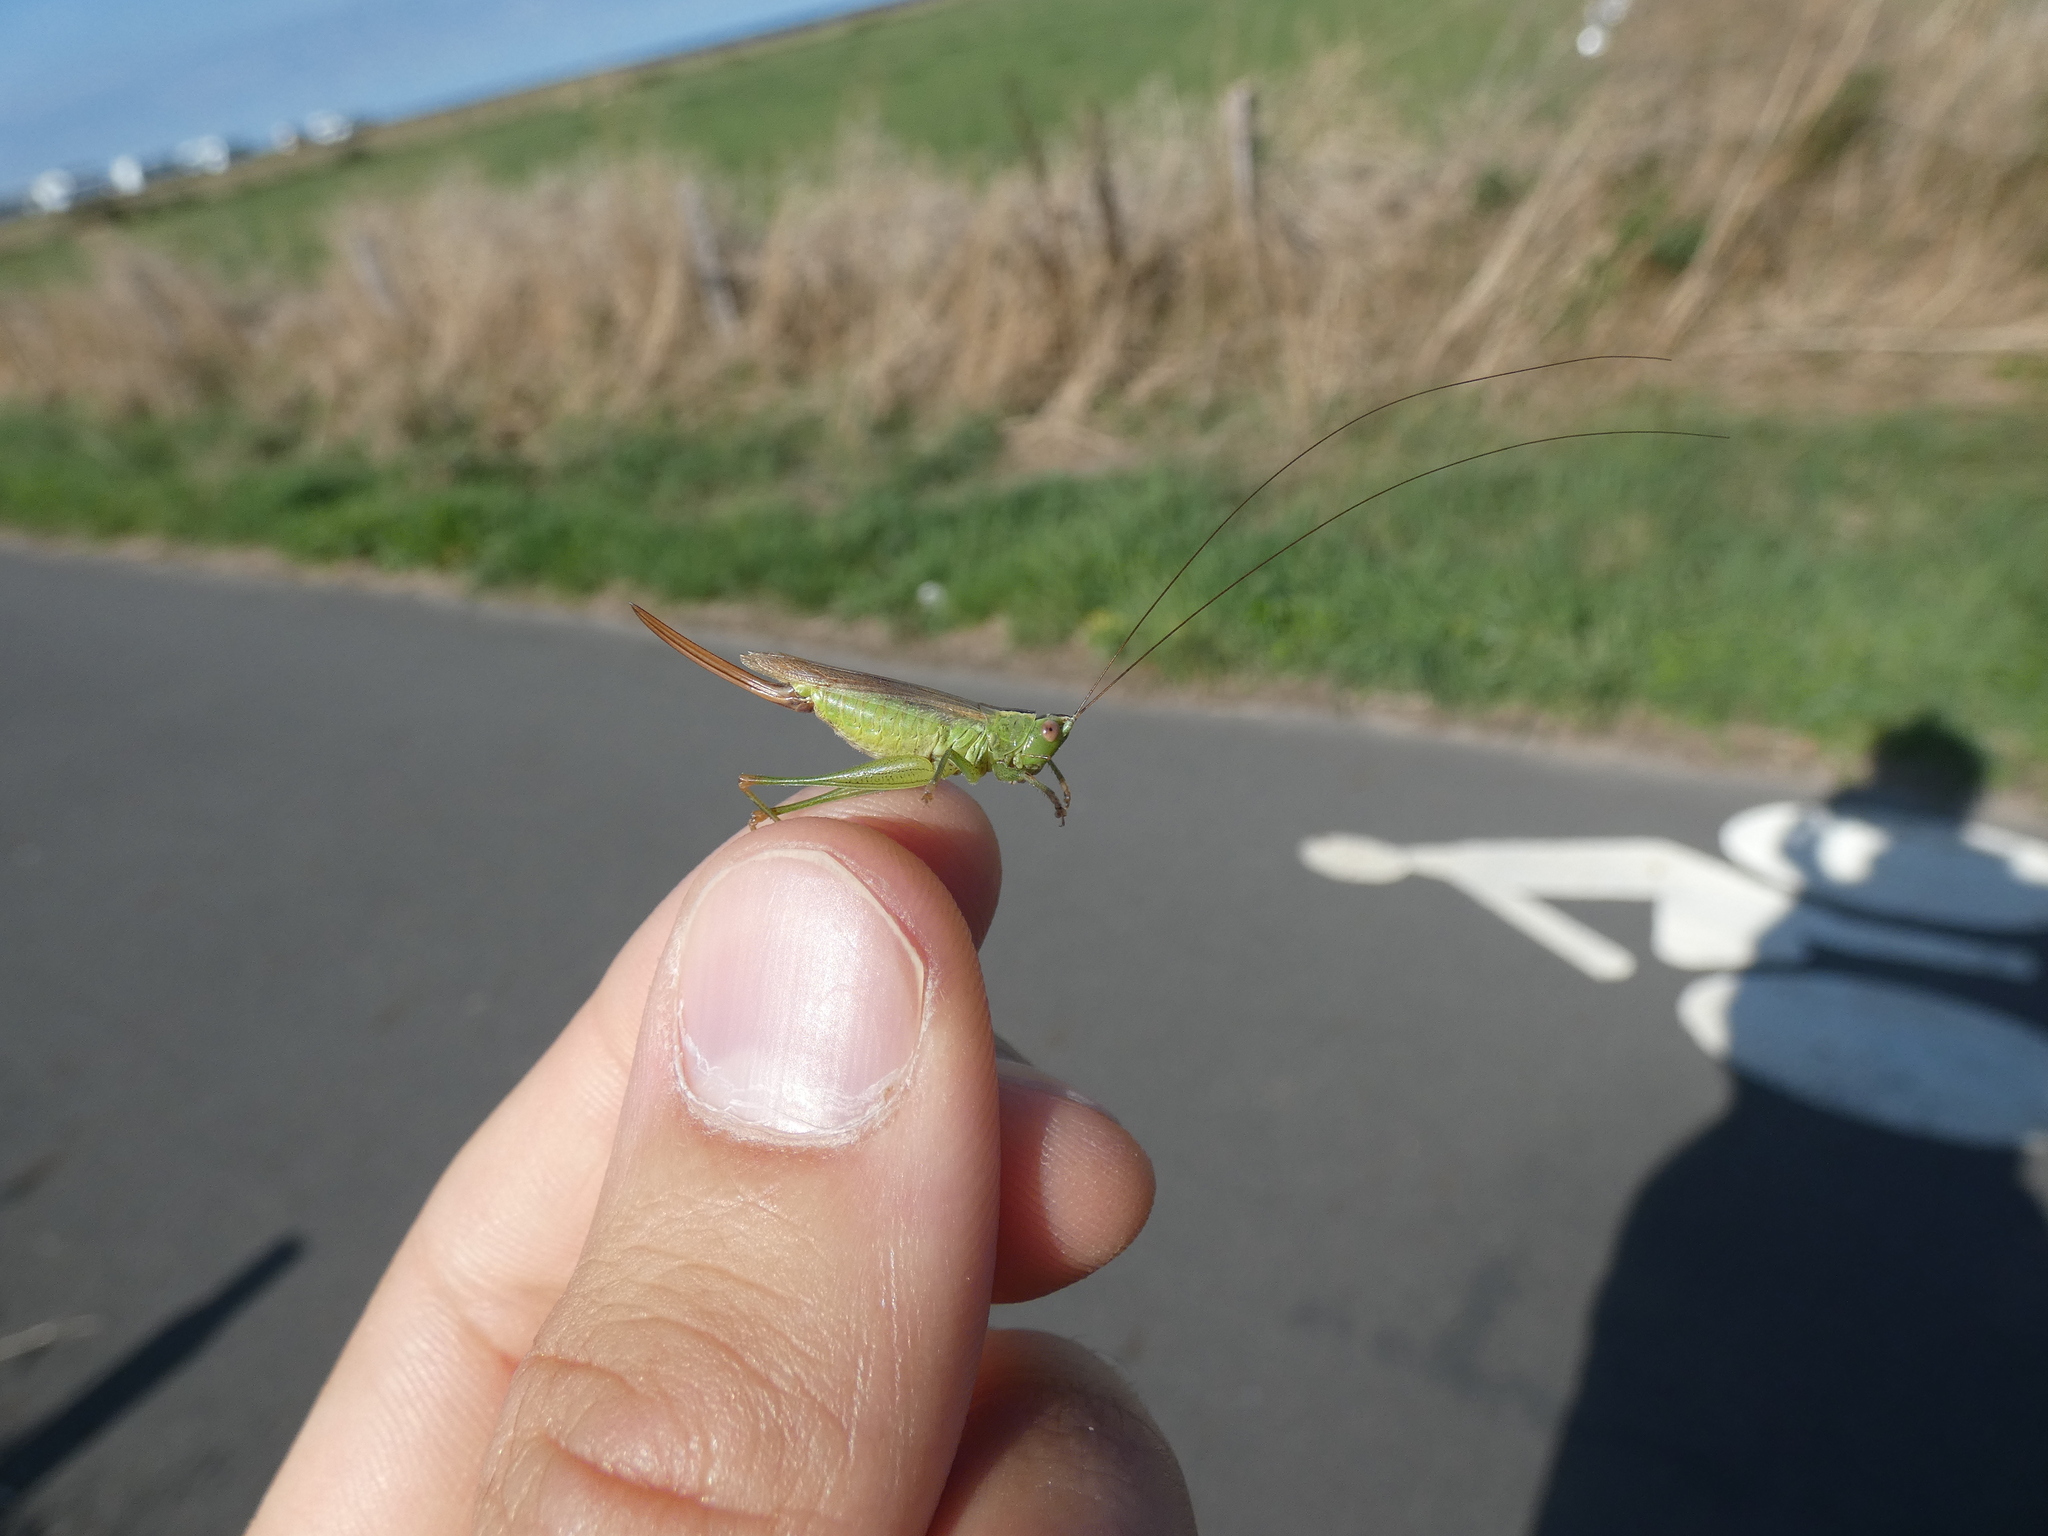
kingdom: Animalia
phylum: Arthropoda
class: Insecta
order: Orthoptera
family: Tettigoniidae
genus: Conocephalus
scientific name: Conocephalus fuscus
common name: Long-winged conehead
